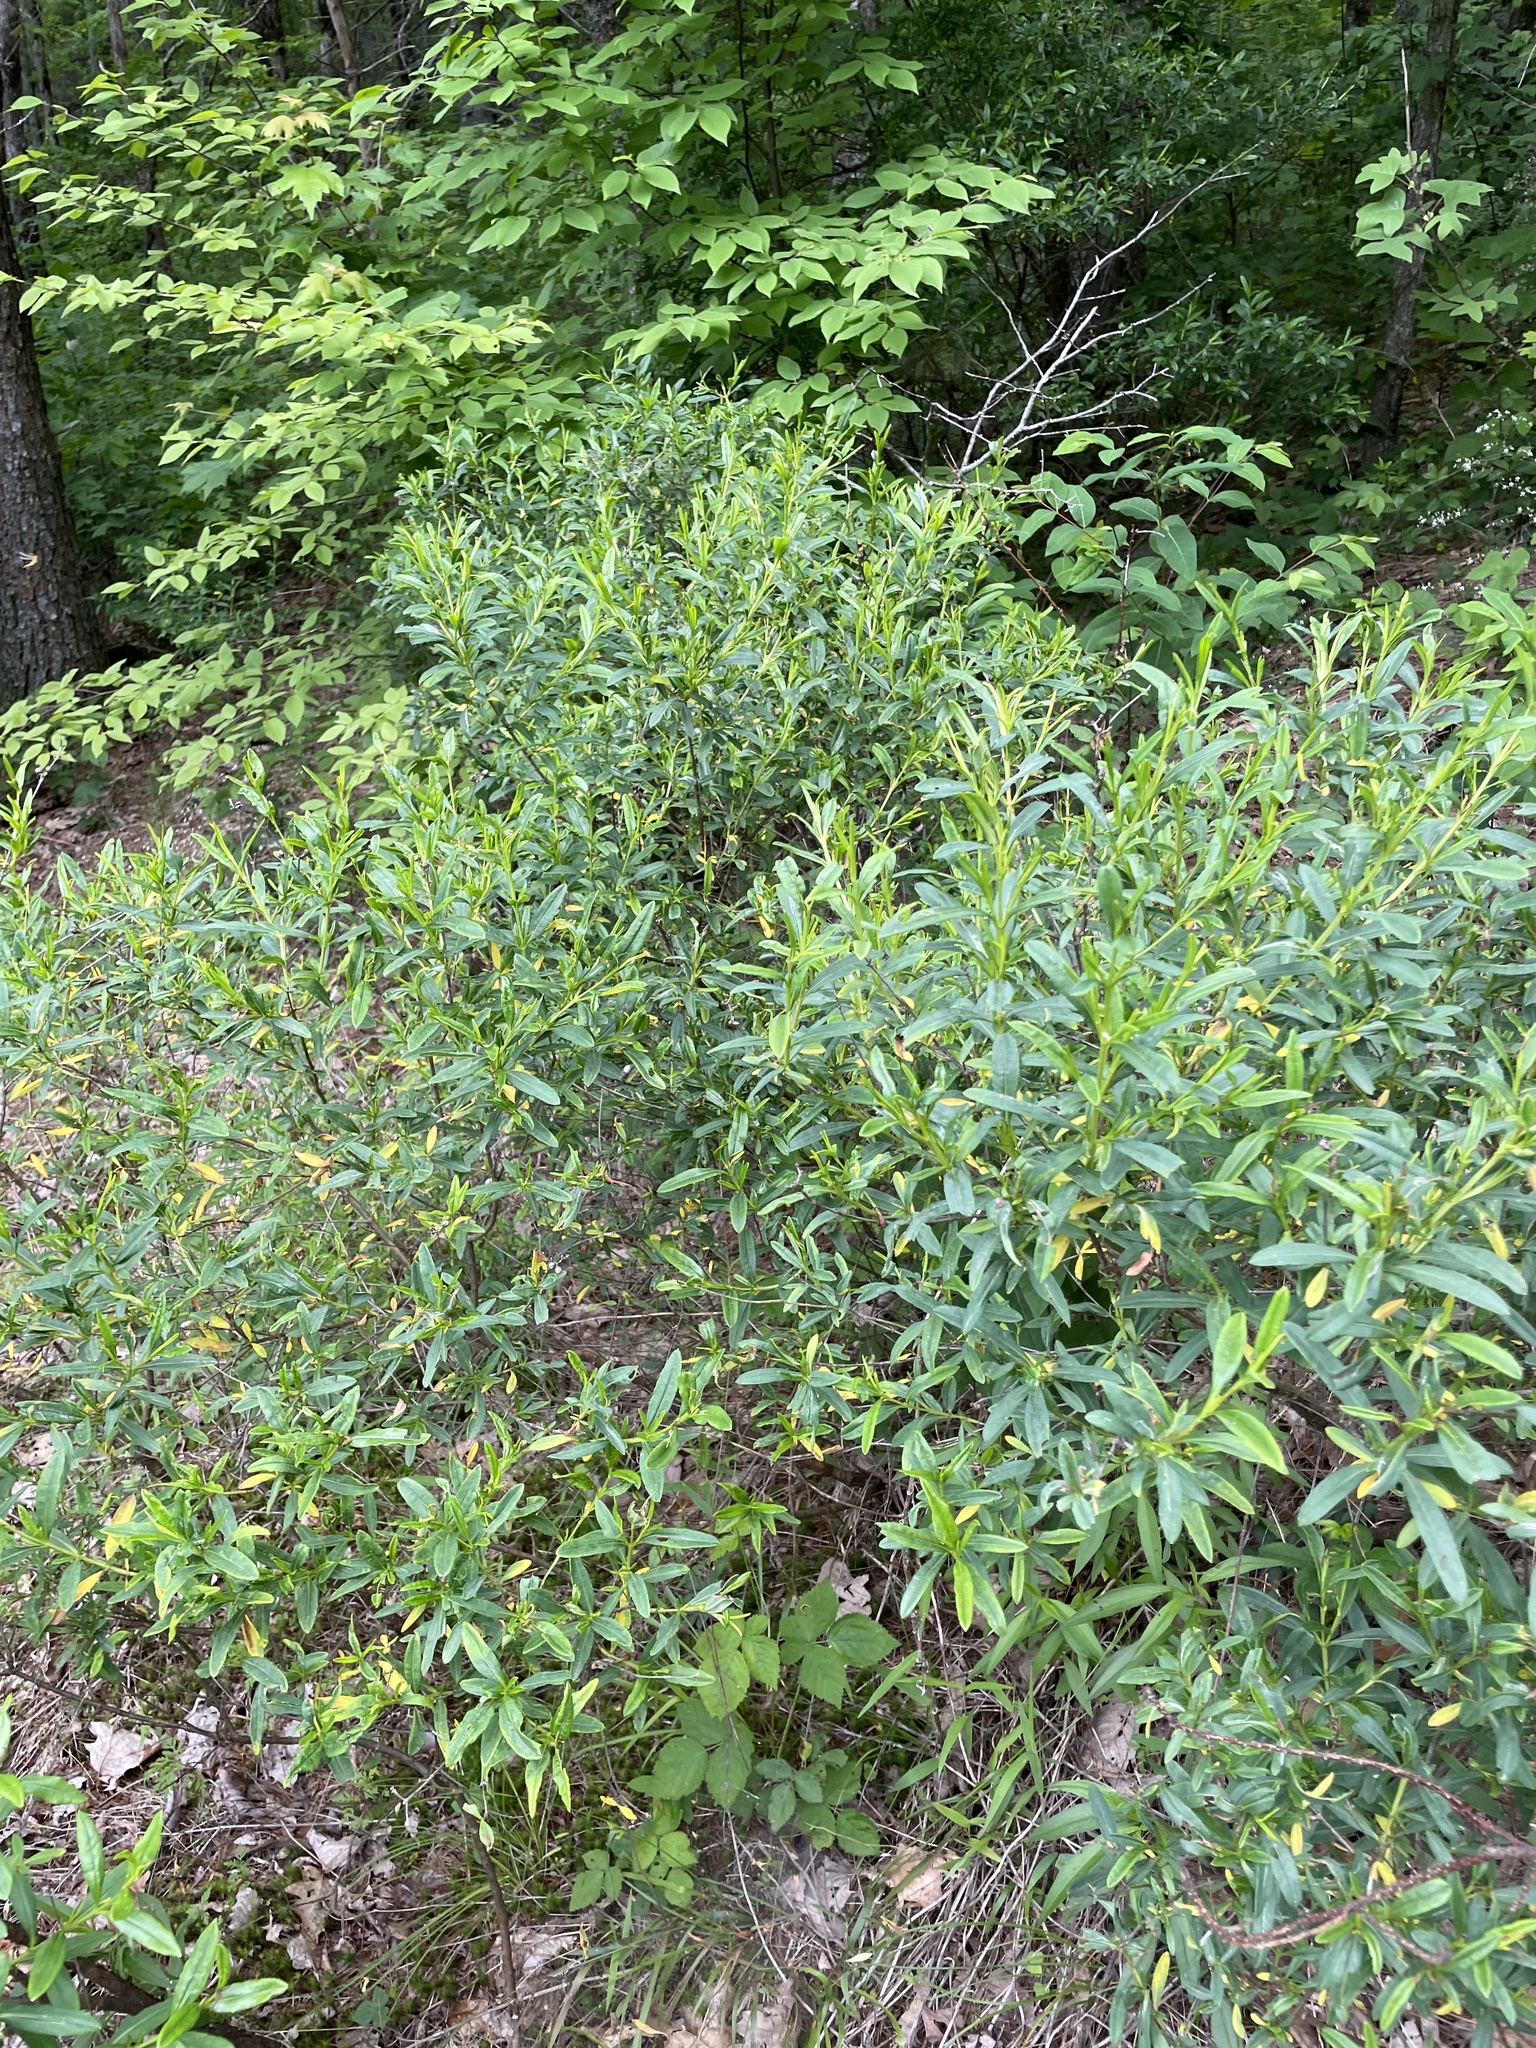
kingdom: Plantae
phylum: Tracheophyta
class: Magnoliopsida
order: Malpighiales
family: Hypericaceae
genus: Hypericum
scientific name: Hypericum prolificum
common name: Shrubby st. john's-wort
